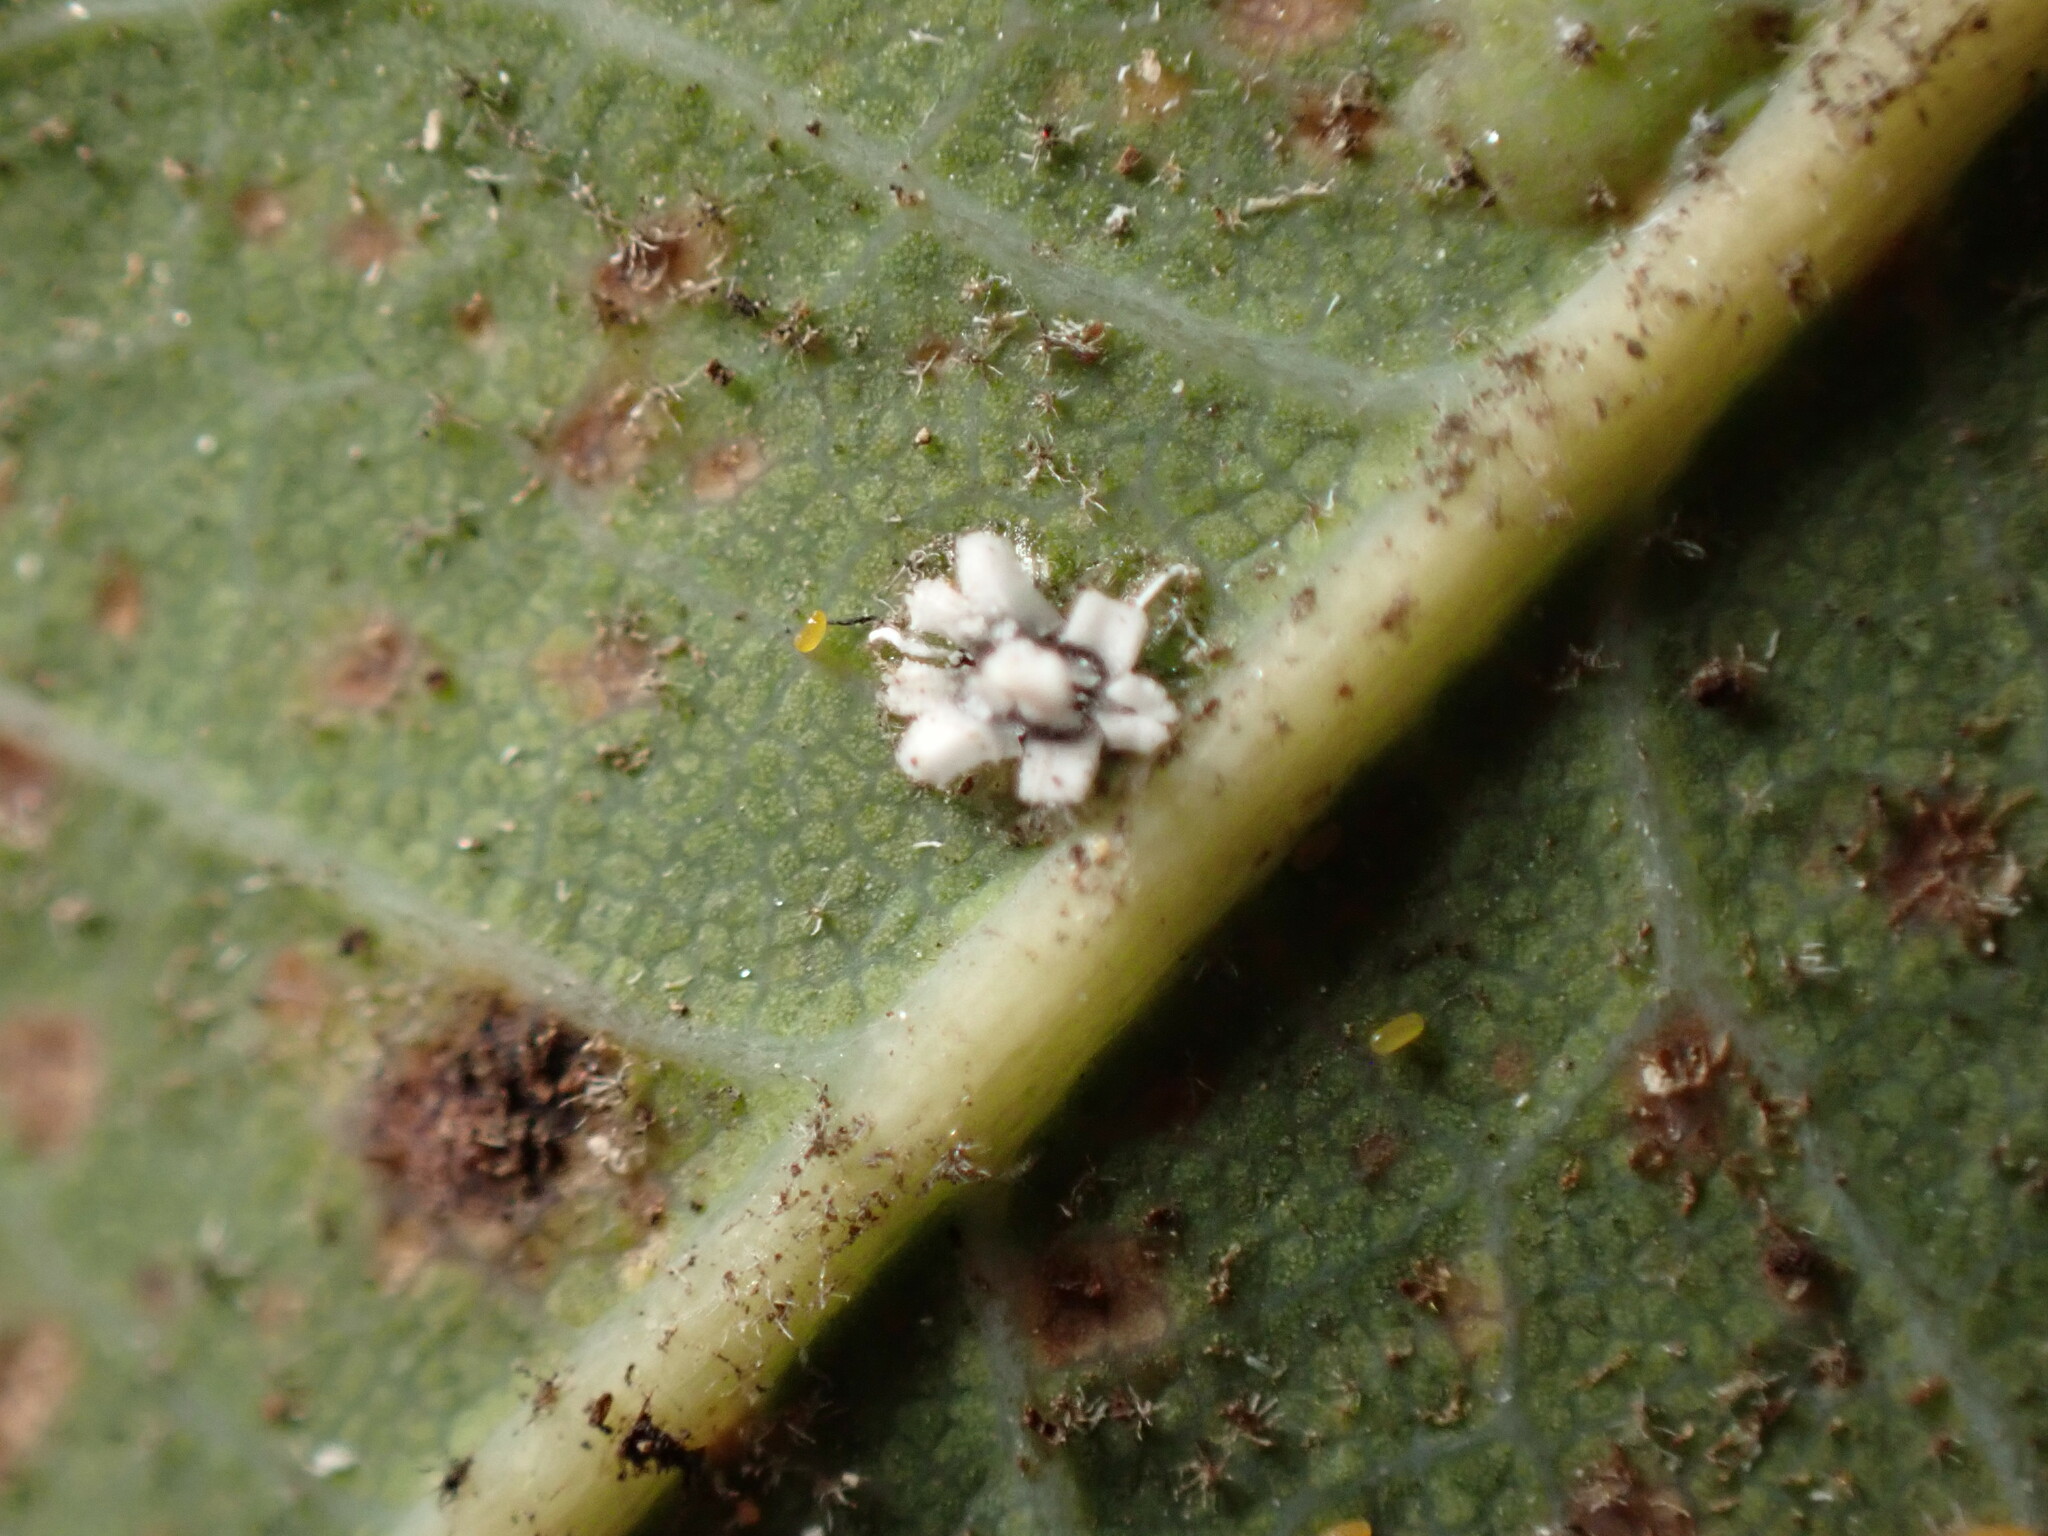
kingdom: Animalia
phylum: Arthropoda
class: Insecta
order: Hemiptera
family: Aleyrodidae
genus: Aleuroplatus
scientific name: Aleuroplatus coronata
